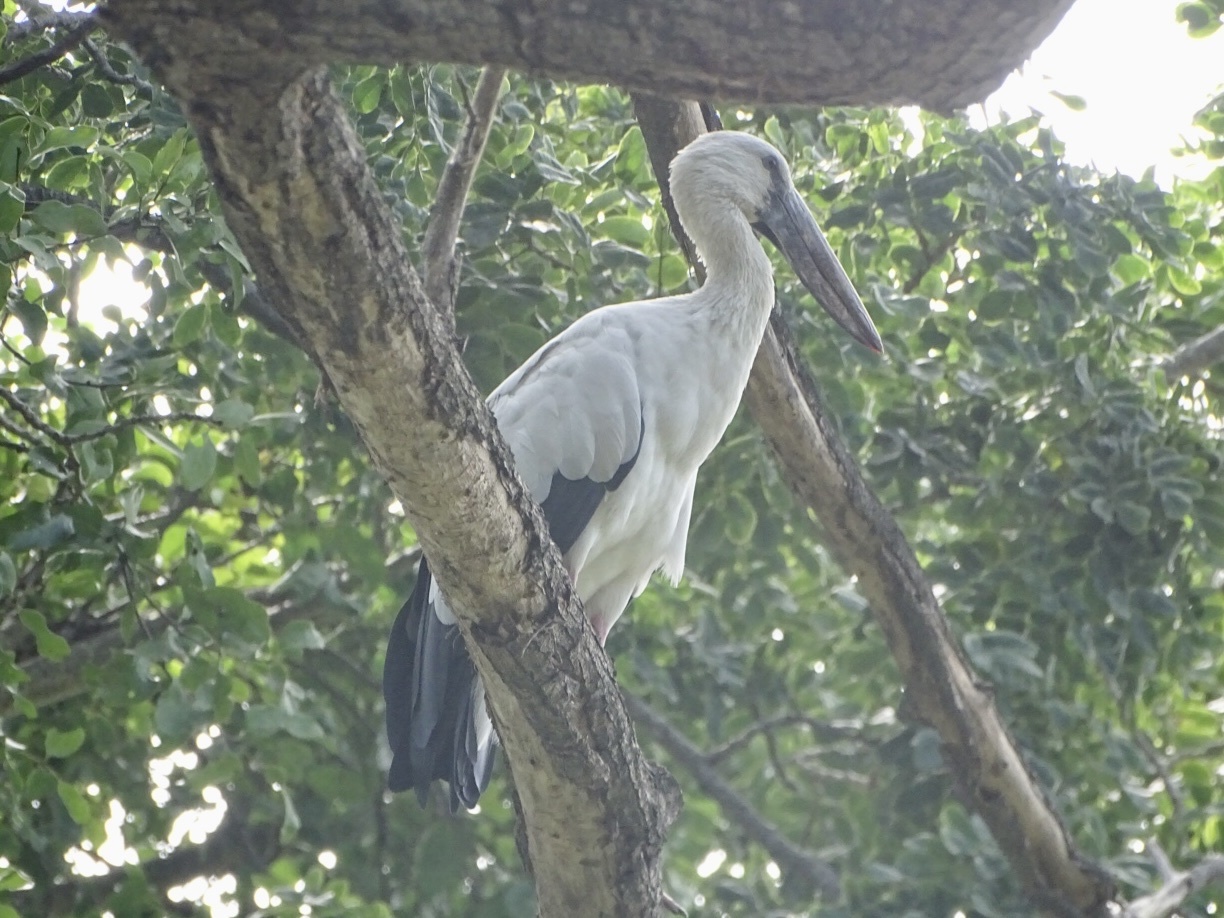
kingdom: Animalia
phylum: Chordata
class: Aves
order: Ciconiiformes
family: Ciconiidae
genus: Anastomus
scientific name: Anastomus oscitans
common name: Asian openbill
